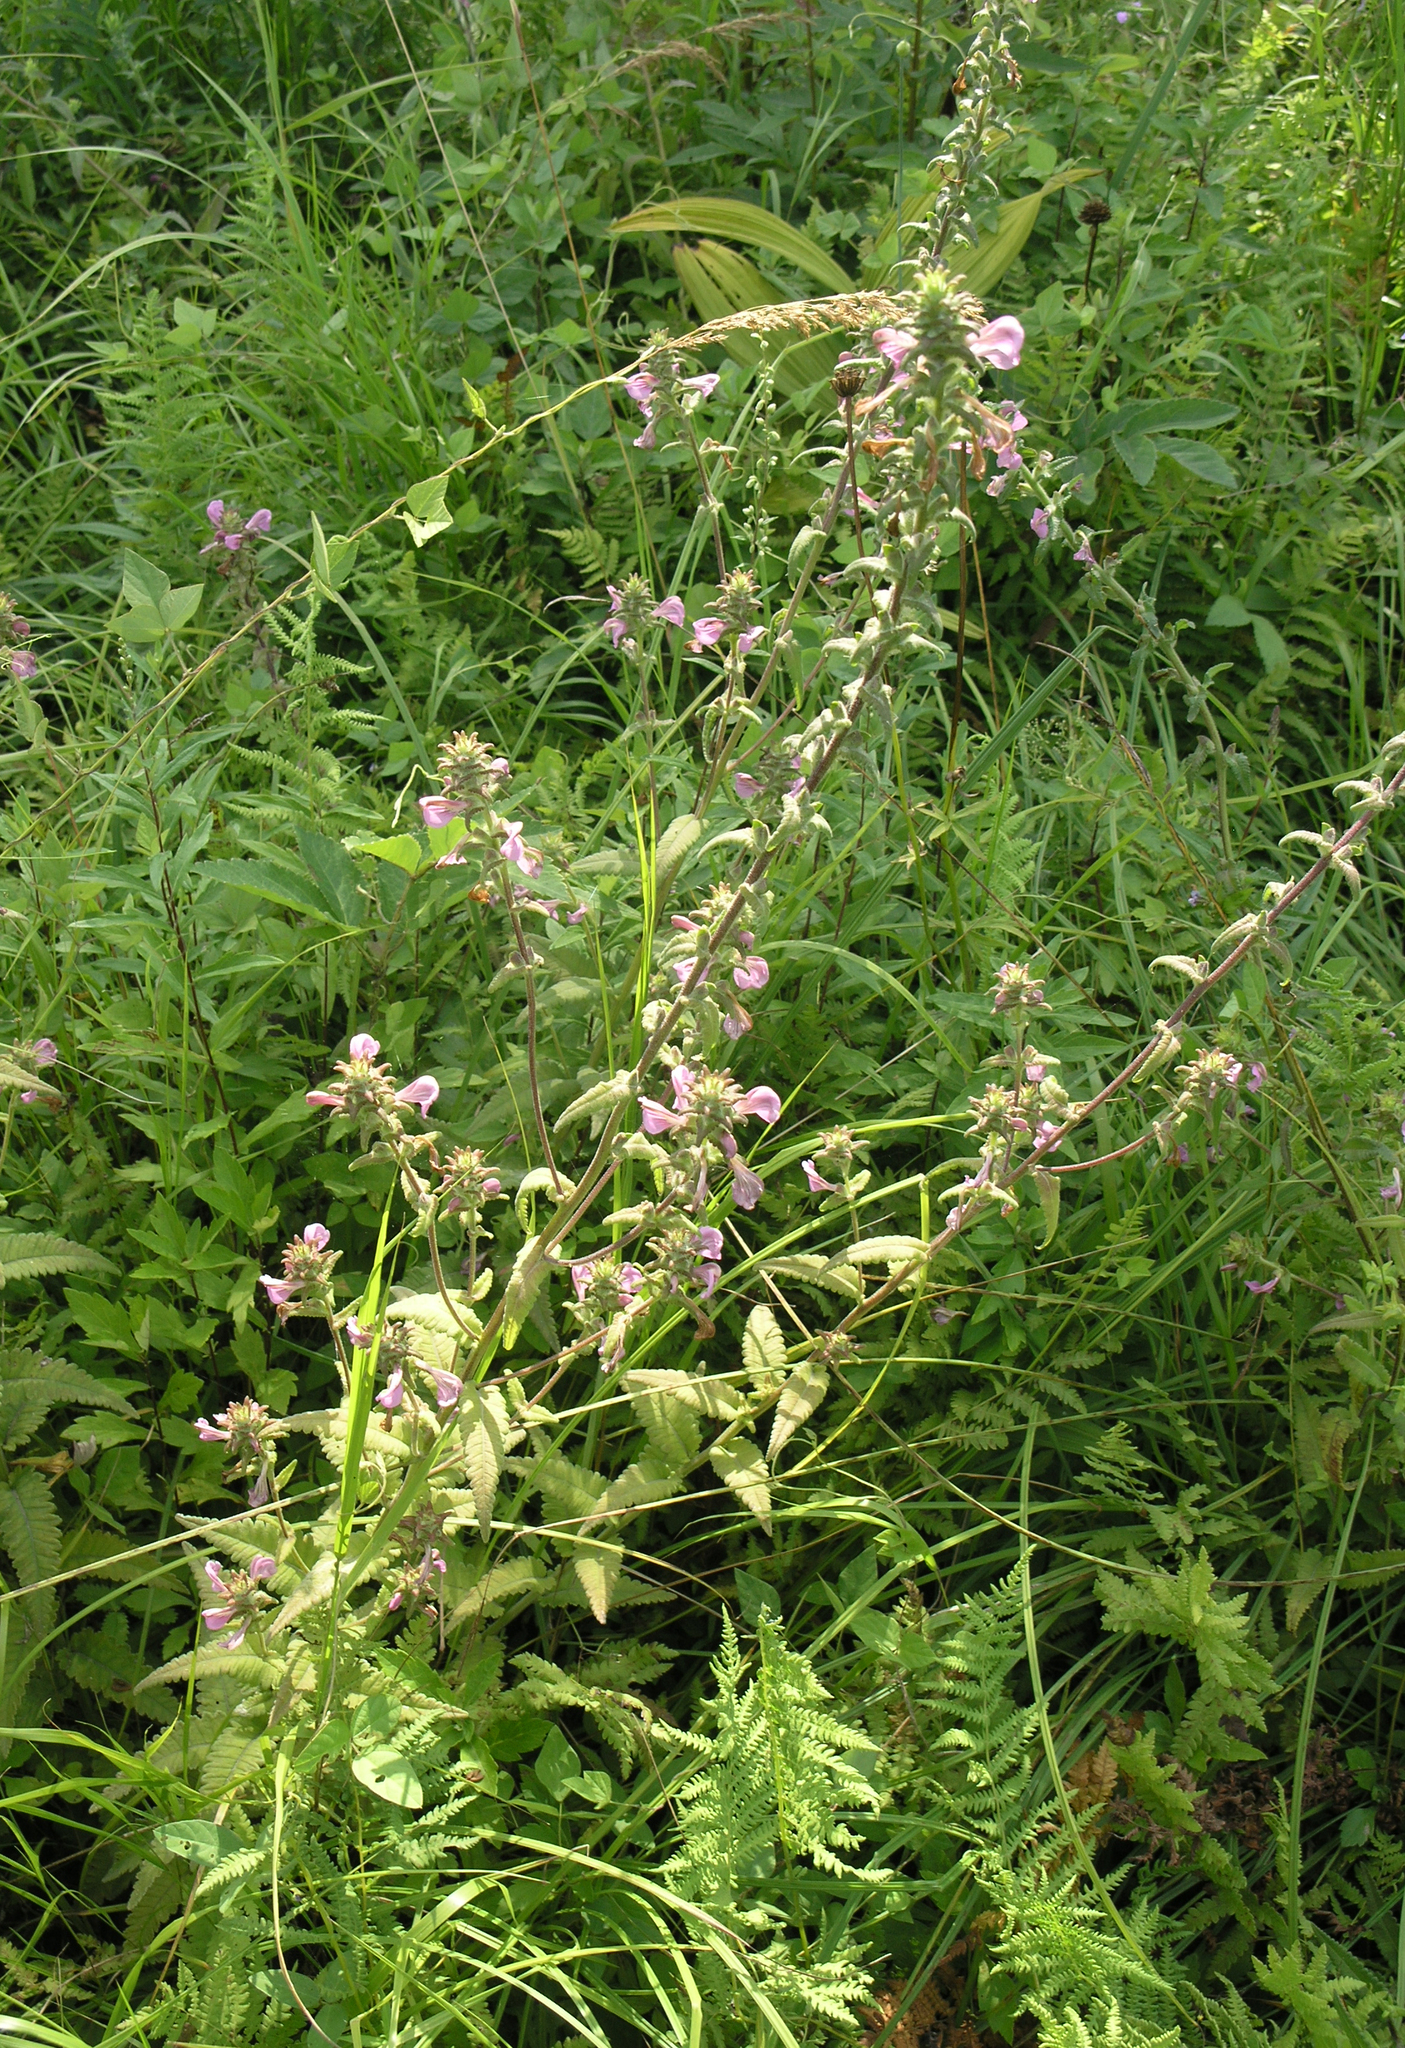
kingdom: Plantae
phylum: Tracheophyta
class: Magnoliopsida
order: Lamiales
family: Orobanchaceae
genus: Pedicularis
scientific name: Pedicularis resupinata
